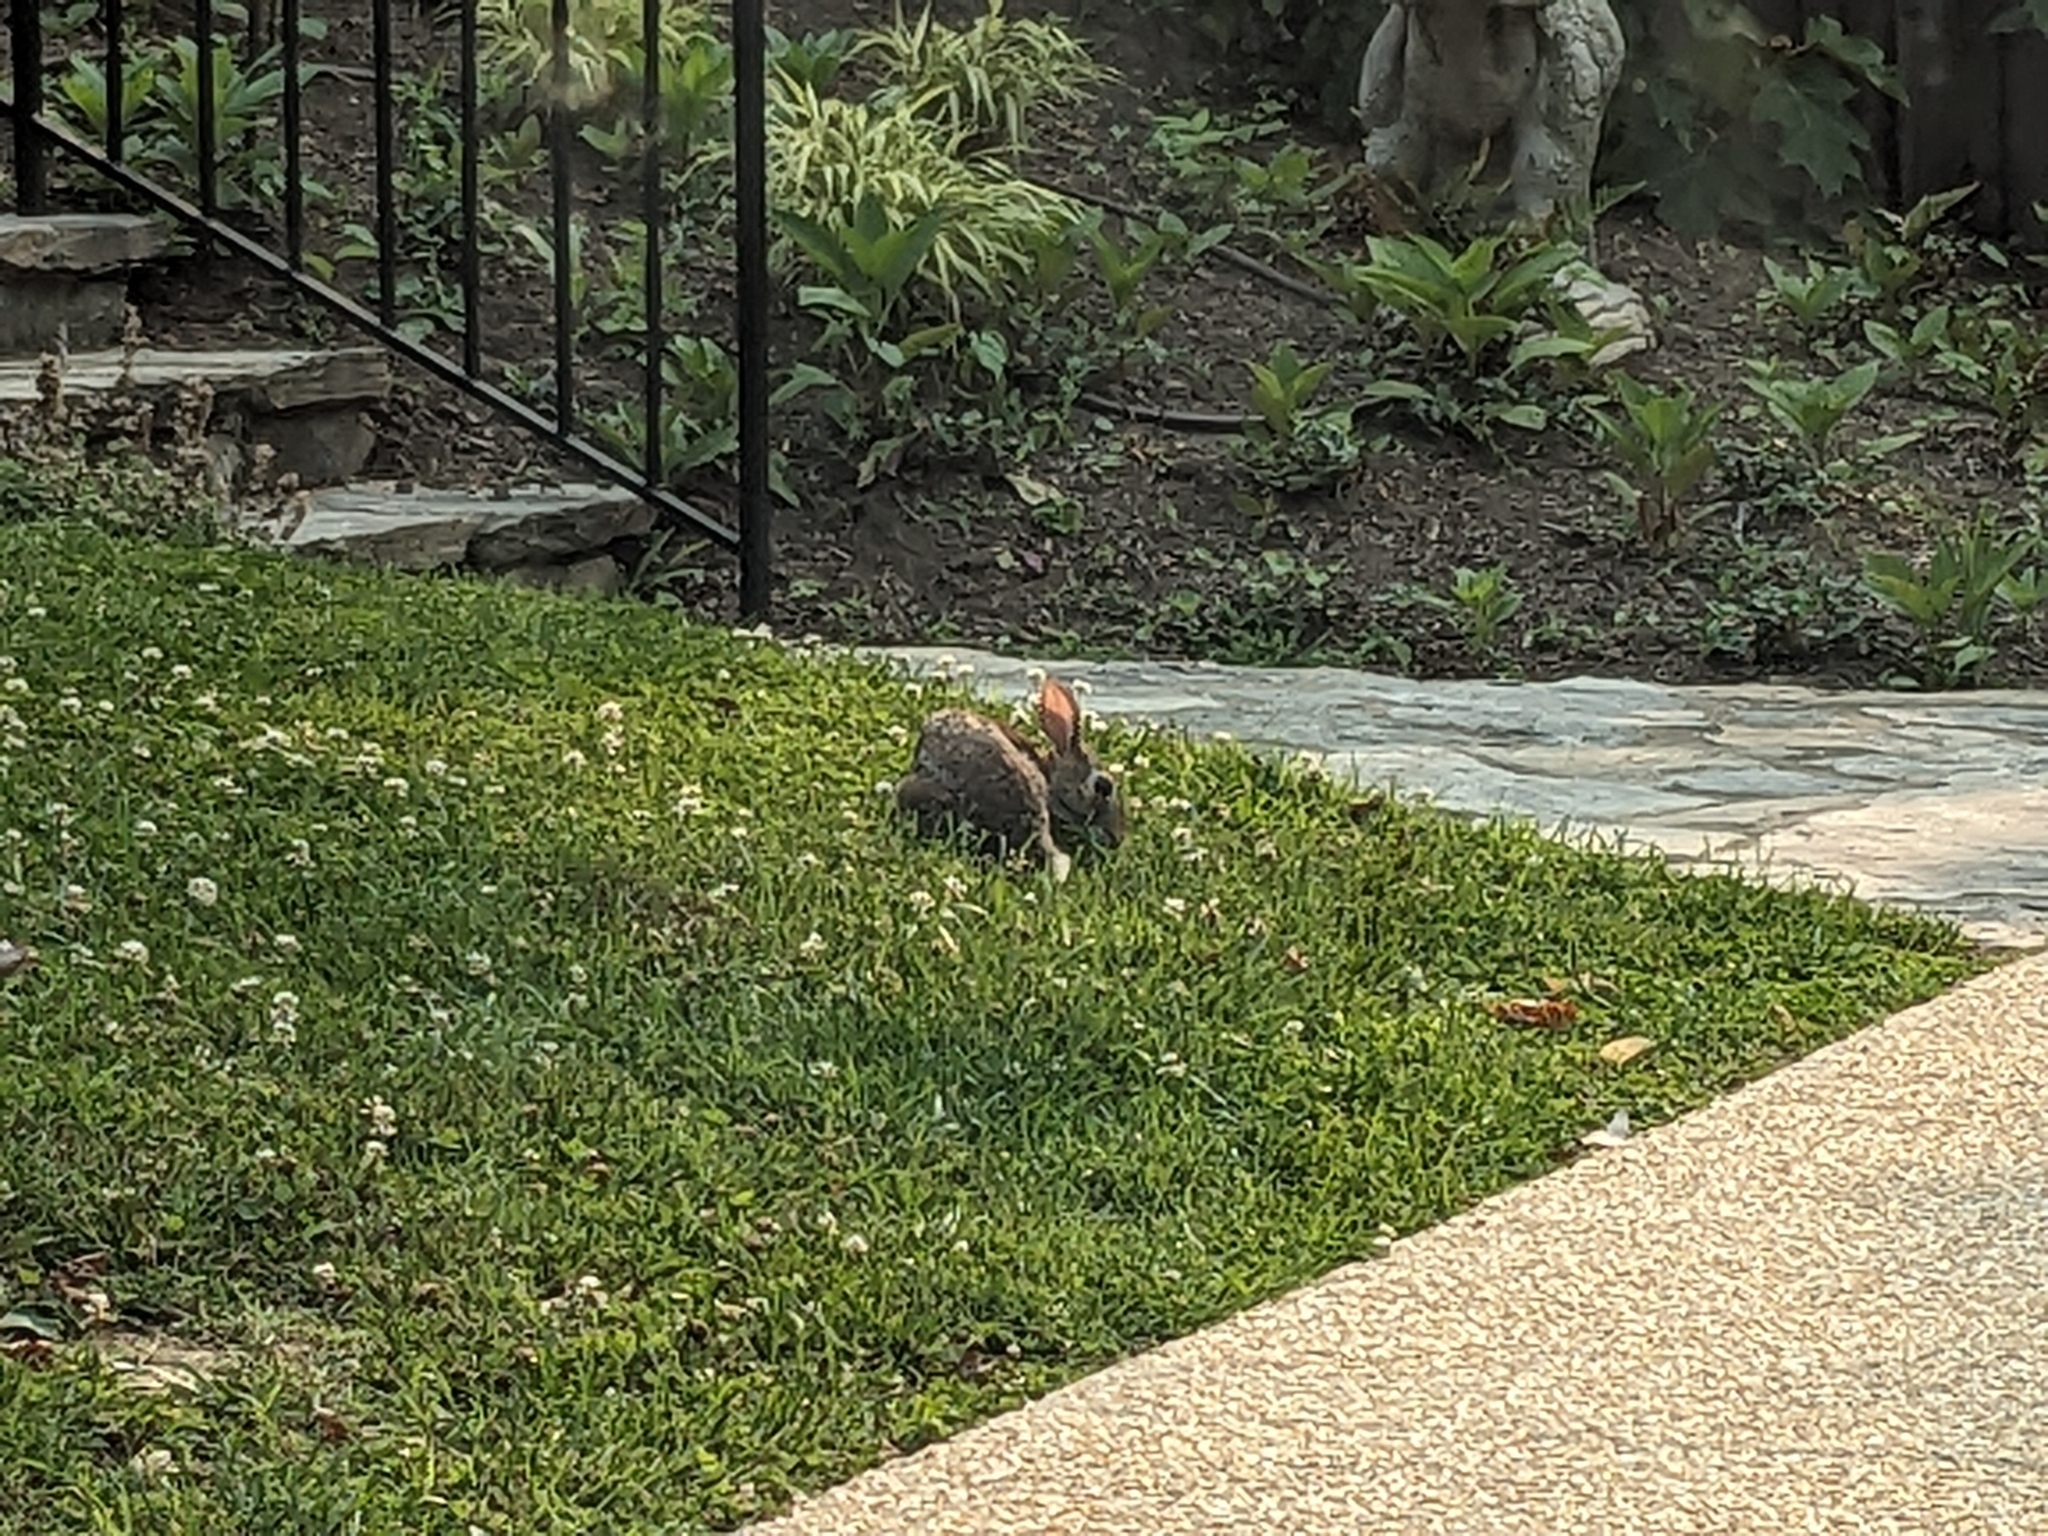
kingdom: Animalia
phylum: Chordata
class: Mammalia
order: Lagomorpha
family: Leporidae
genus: Sylvilagus
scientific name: Sylvilagus floridanus
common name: Eastern cottontail
